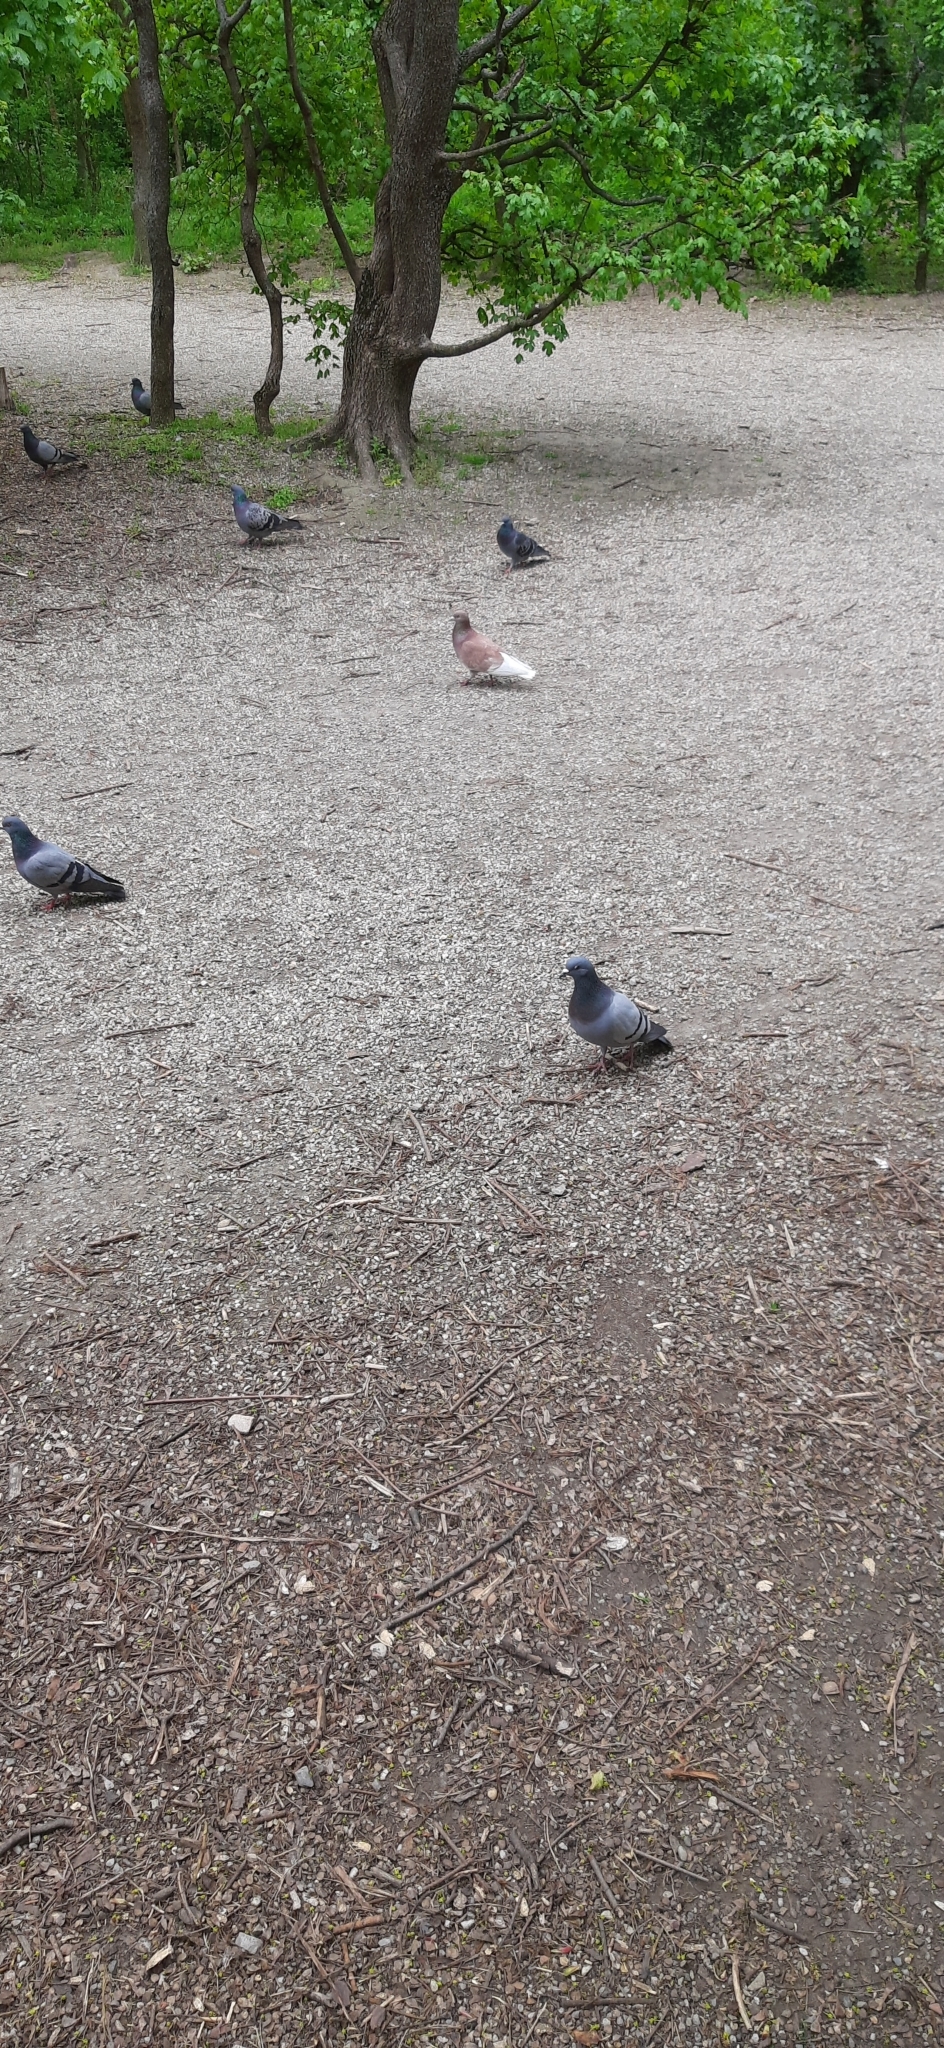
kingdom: Animalia
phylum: Chordata
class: Aves
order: Columbiformes
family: Columbidae
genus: Columba
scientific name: Columba livia
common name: Rock pigeon
